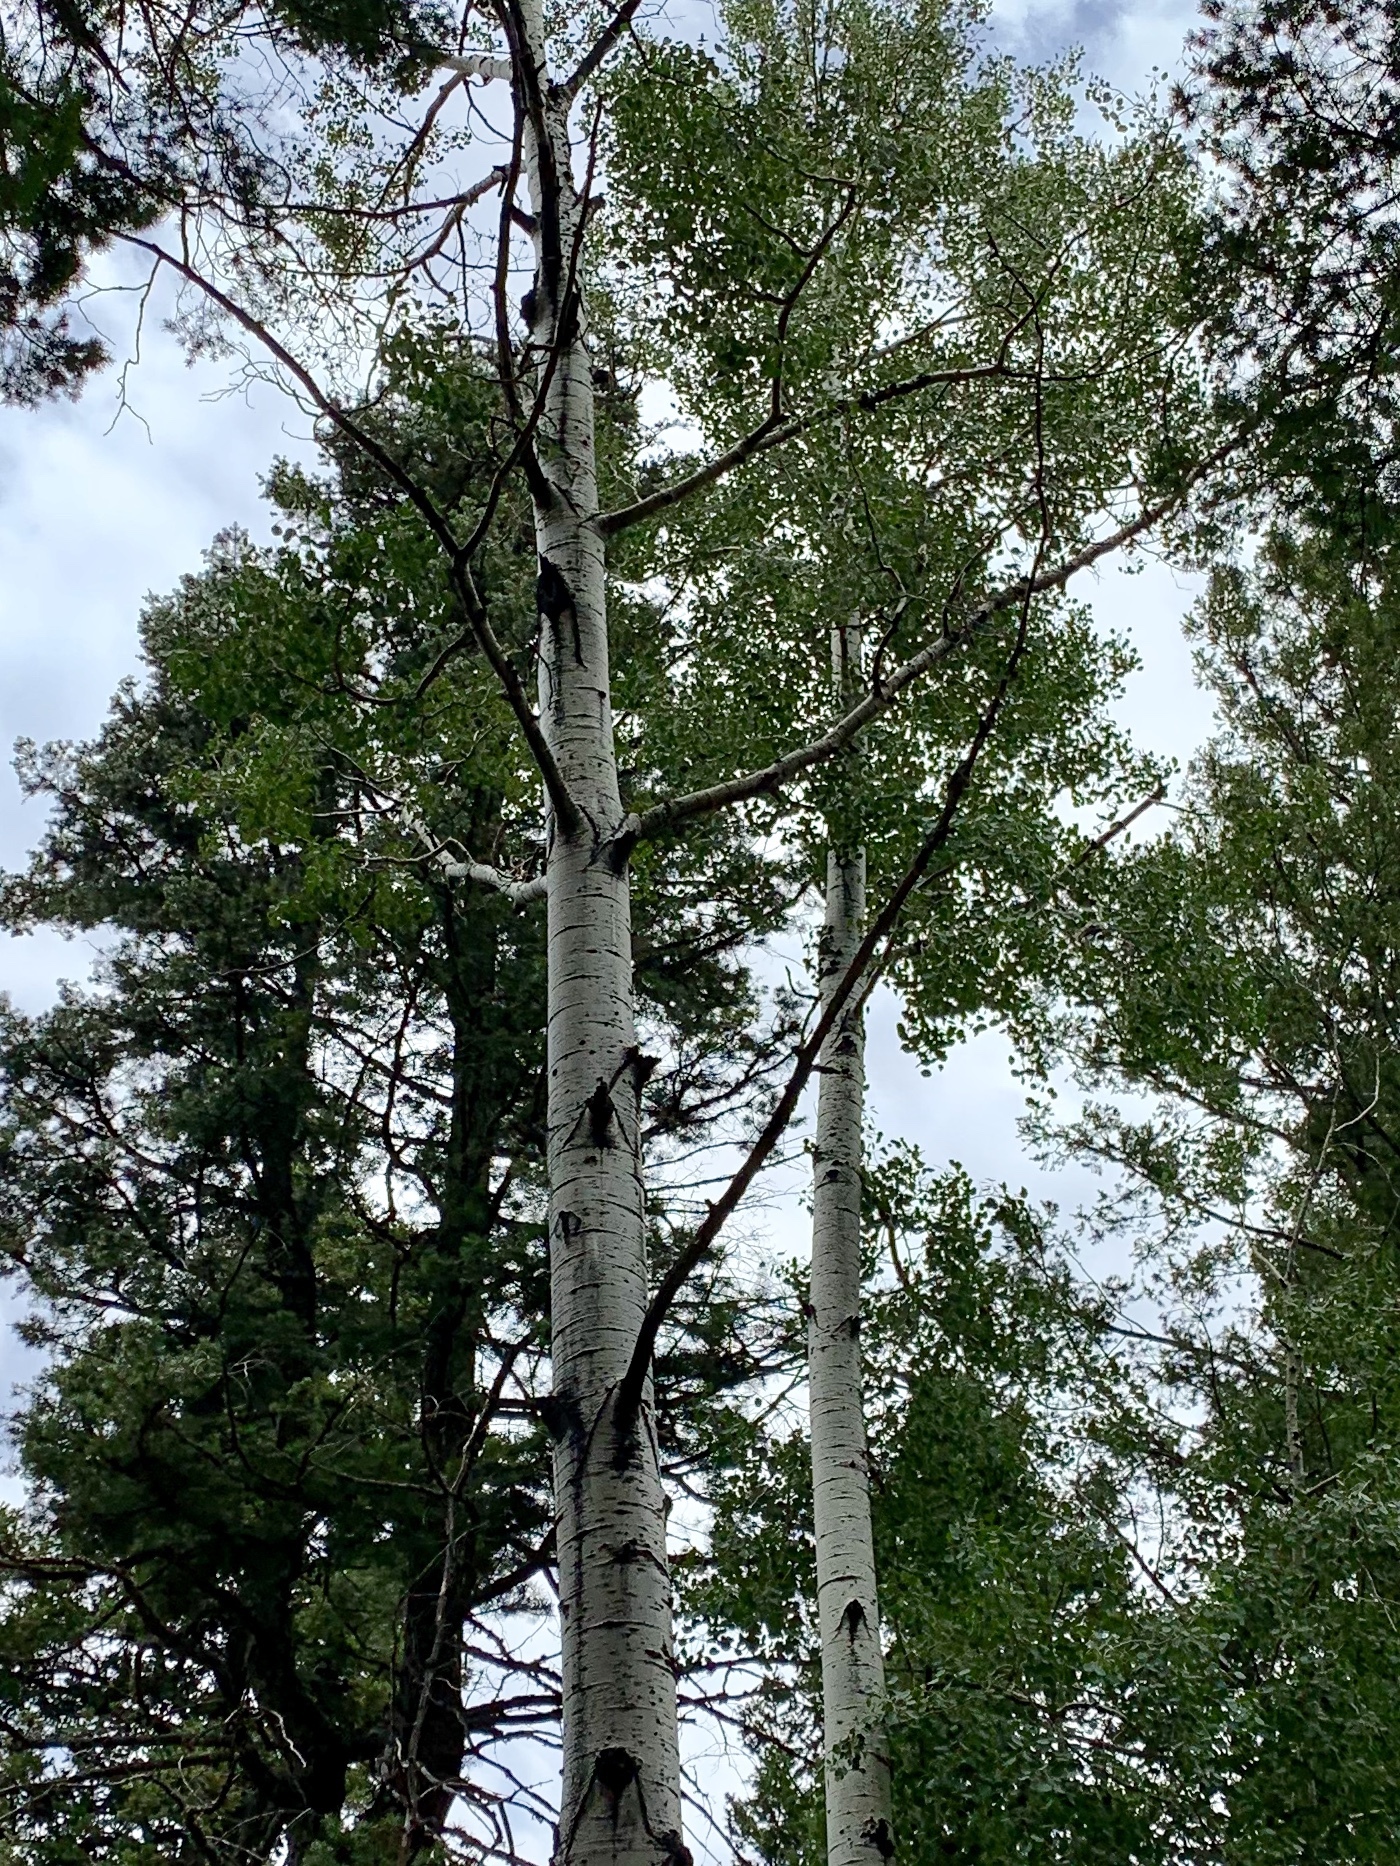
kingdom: Plantae
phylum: Tracheophyta
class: Magnoliopsida
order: Malpighiales
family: Salicaceae
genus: Populus
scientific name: Populus tremuloides
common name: Quaking aspen
